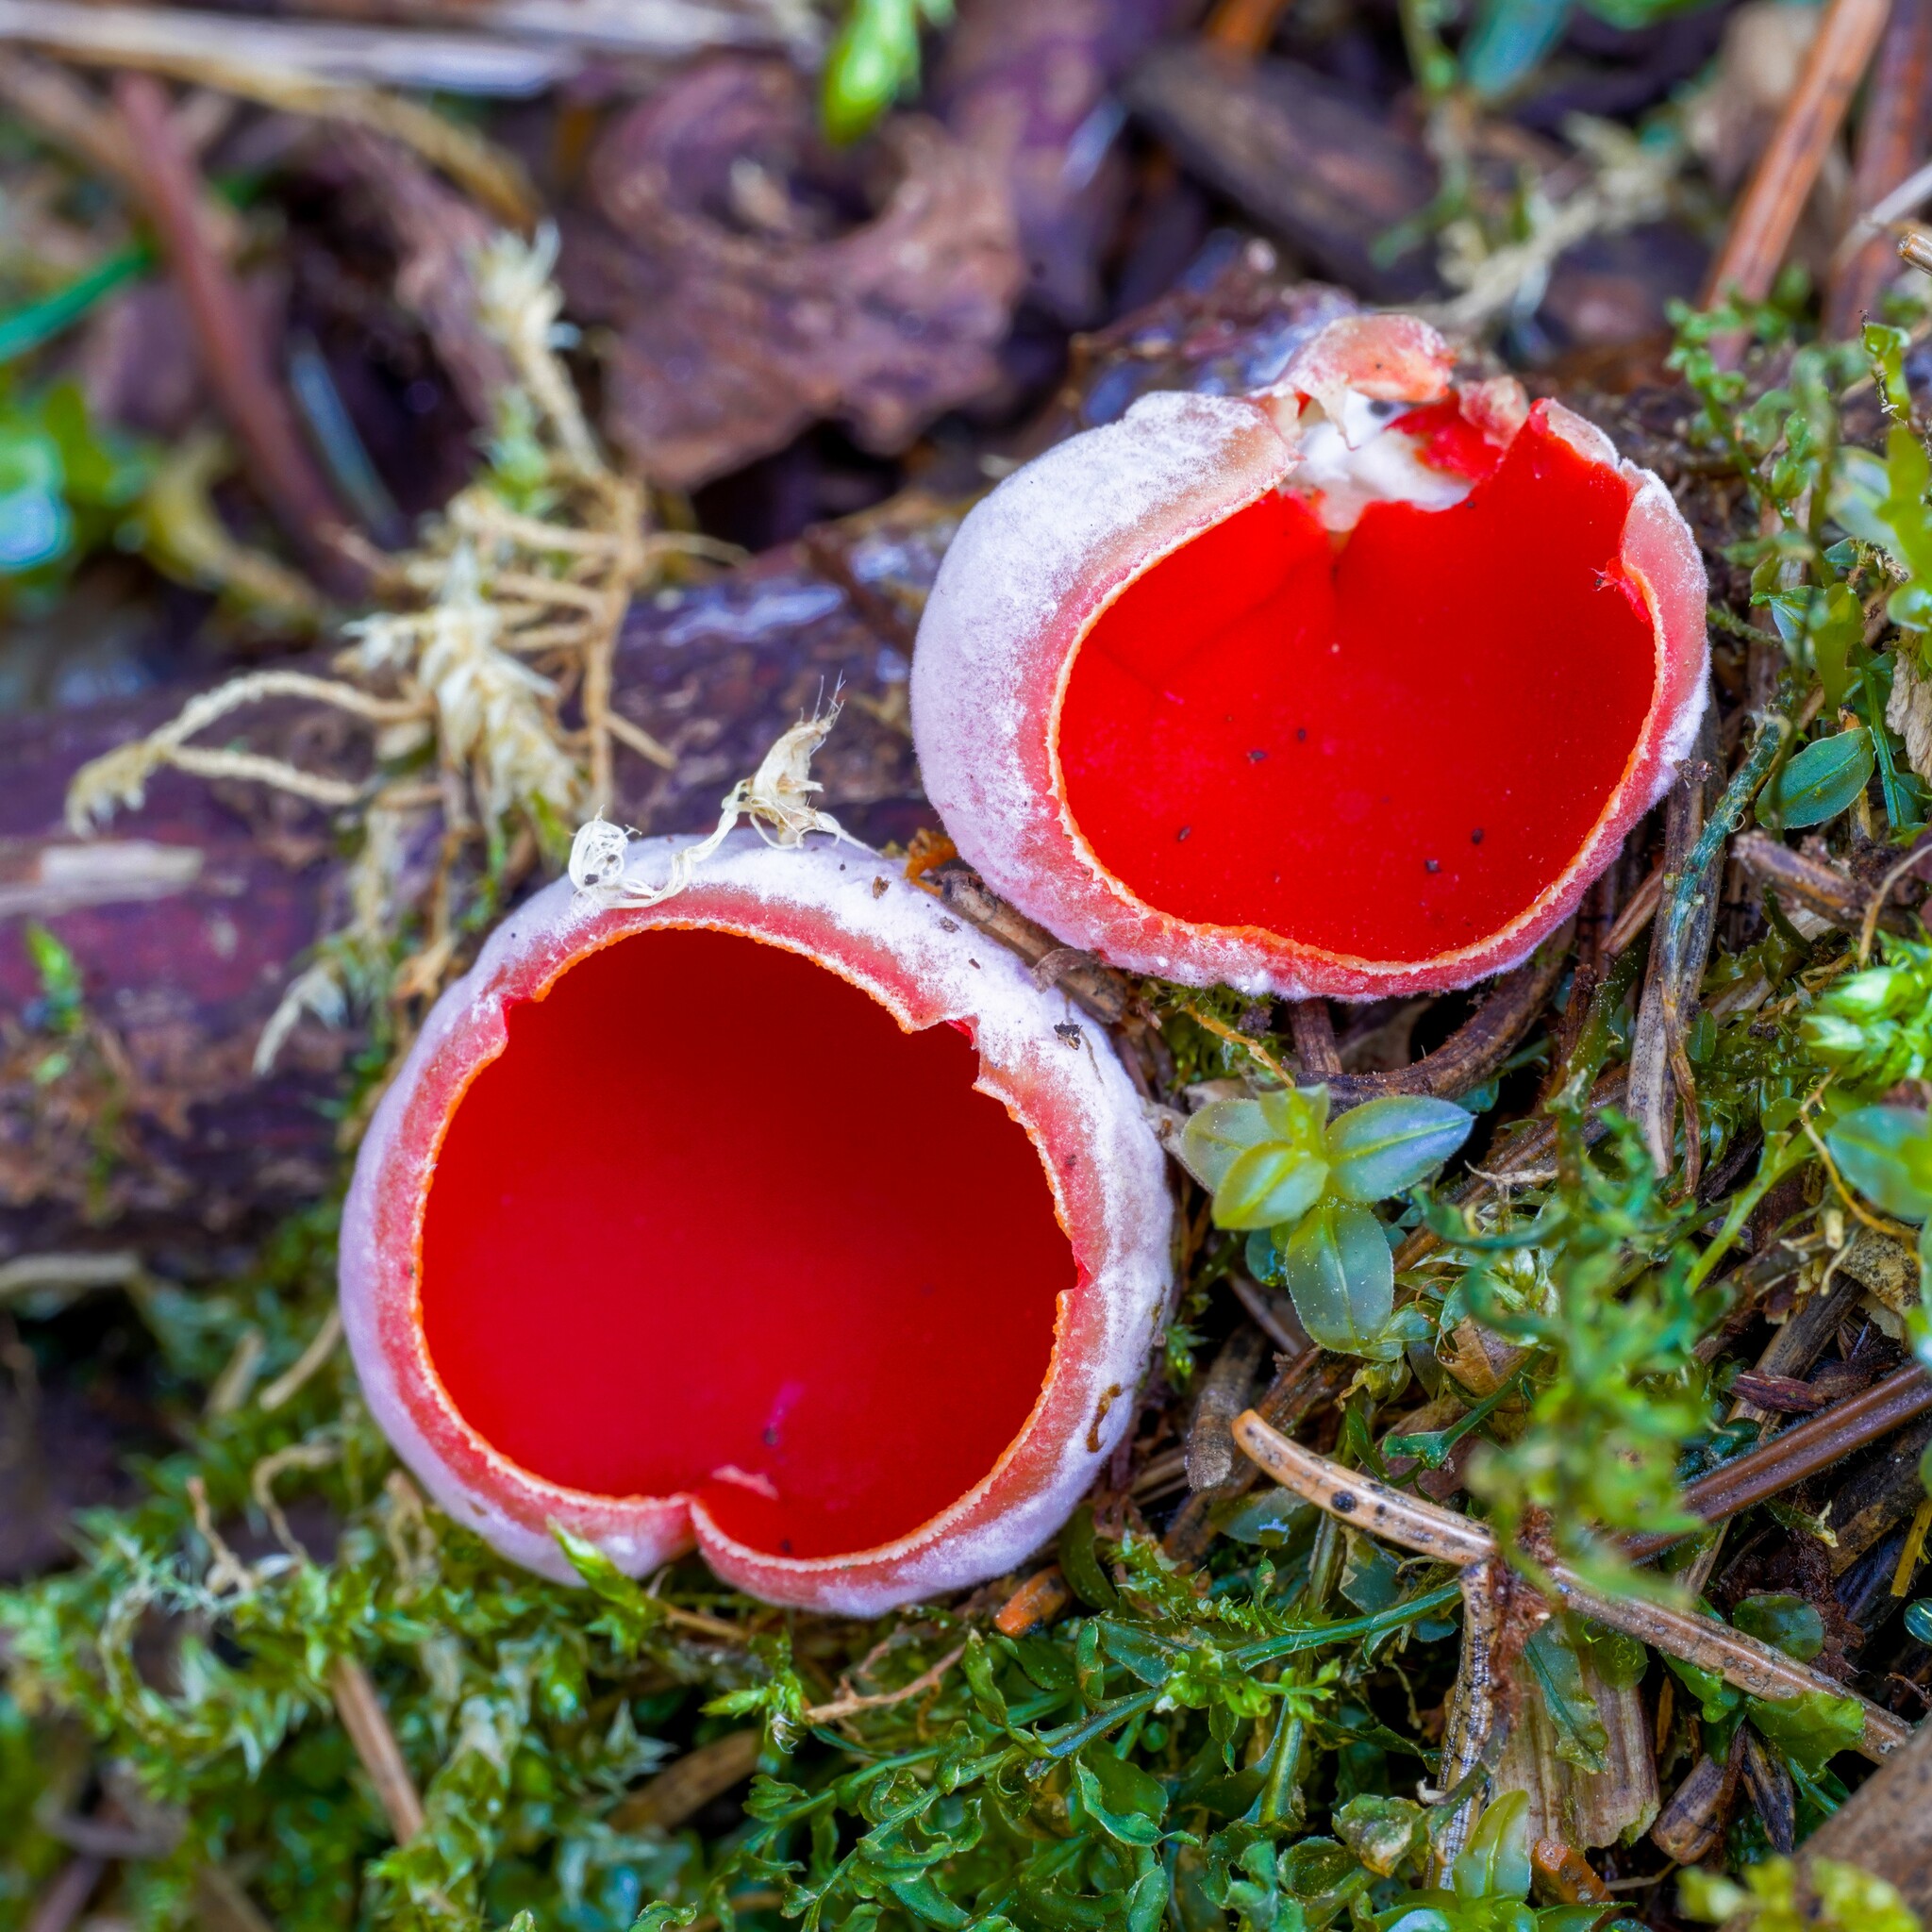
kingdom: Fungi
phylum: Ascomycota
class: Pezizomycetes
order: Pezizales
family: Sarcoscyphaceae
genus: Sarcoscypha
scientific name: Sarcoscypha austriaca
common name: Scarlet elfcup
